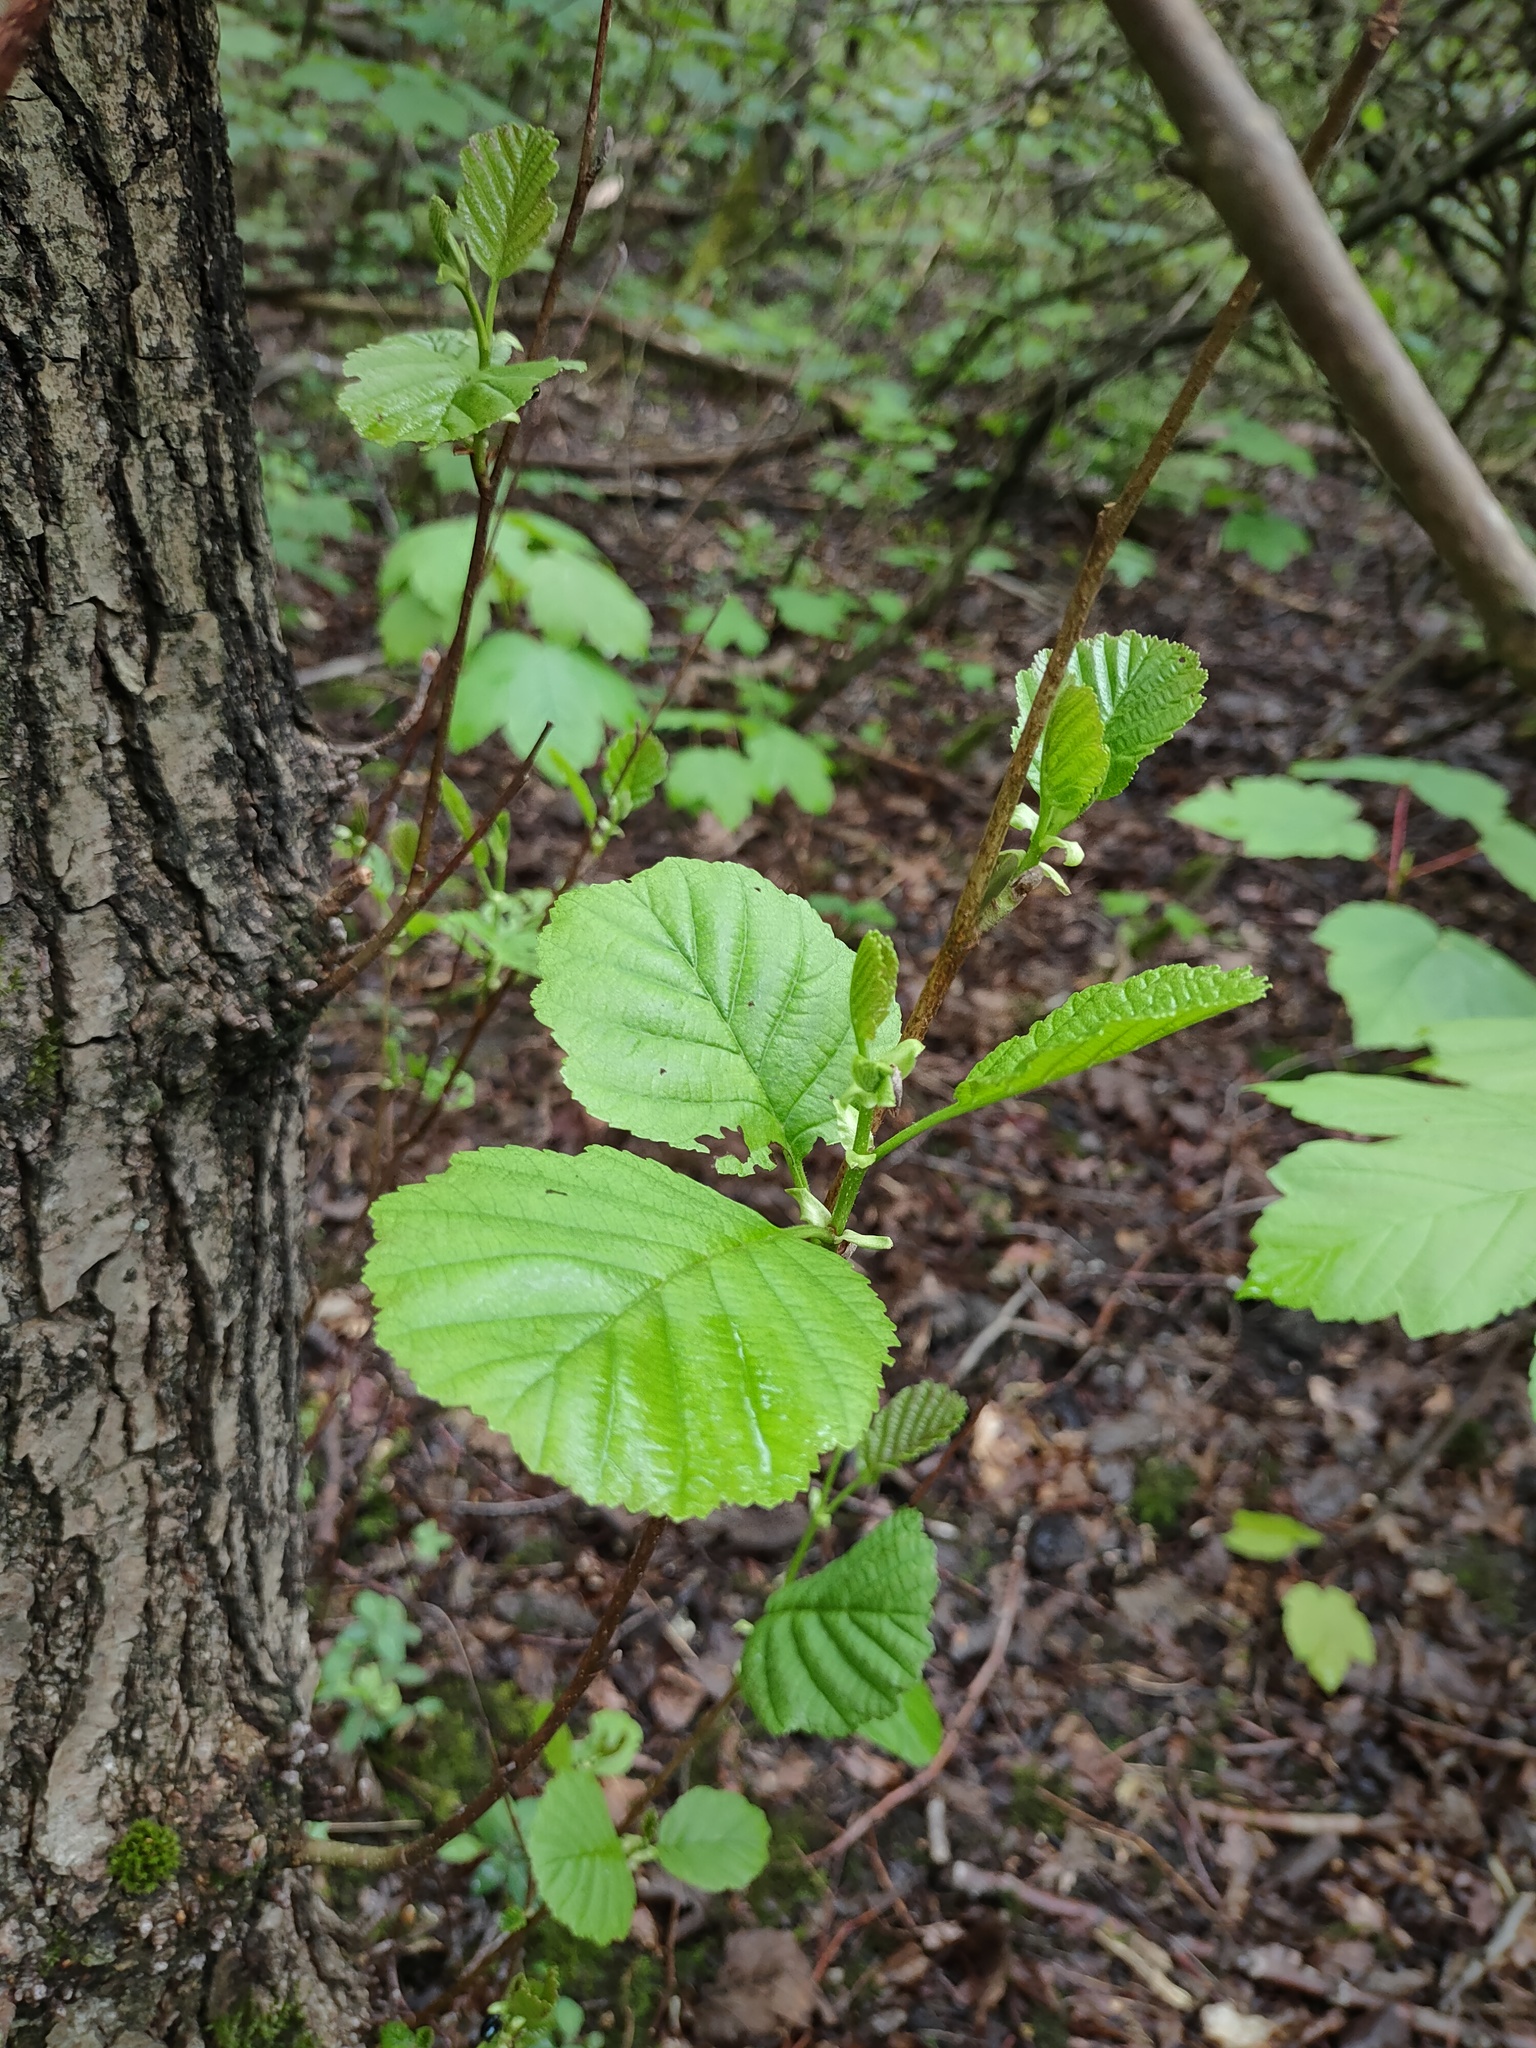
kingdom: Plantae
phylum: Tracheophyta
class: Magnoliopsida
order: Fagales
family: Betulaceae
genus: Alnus
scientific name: Alnus glutinosa
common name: Black alder
